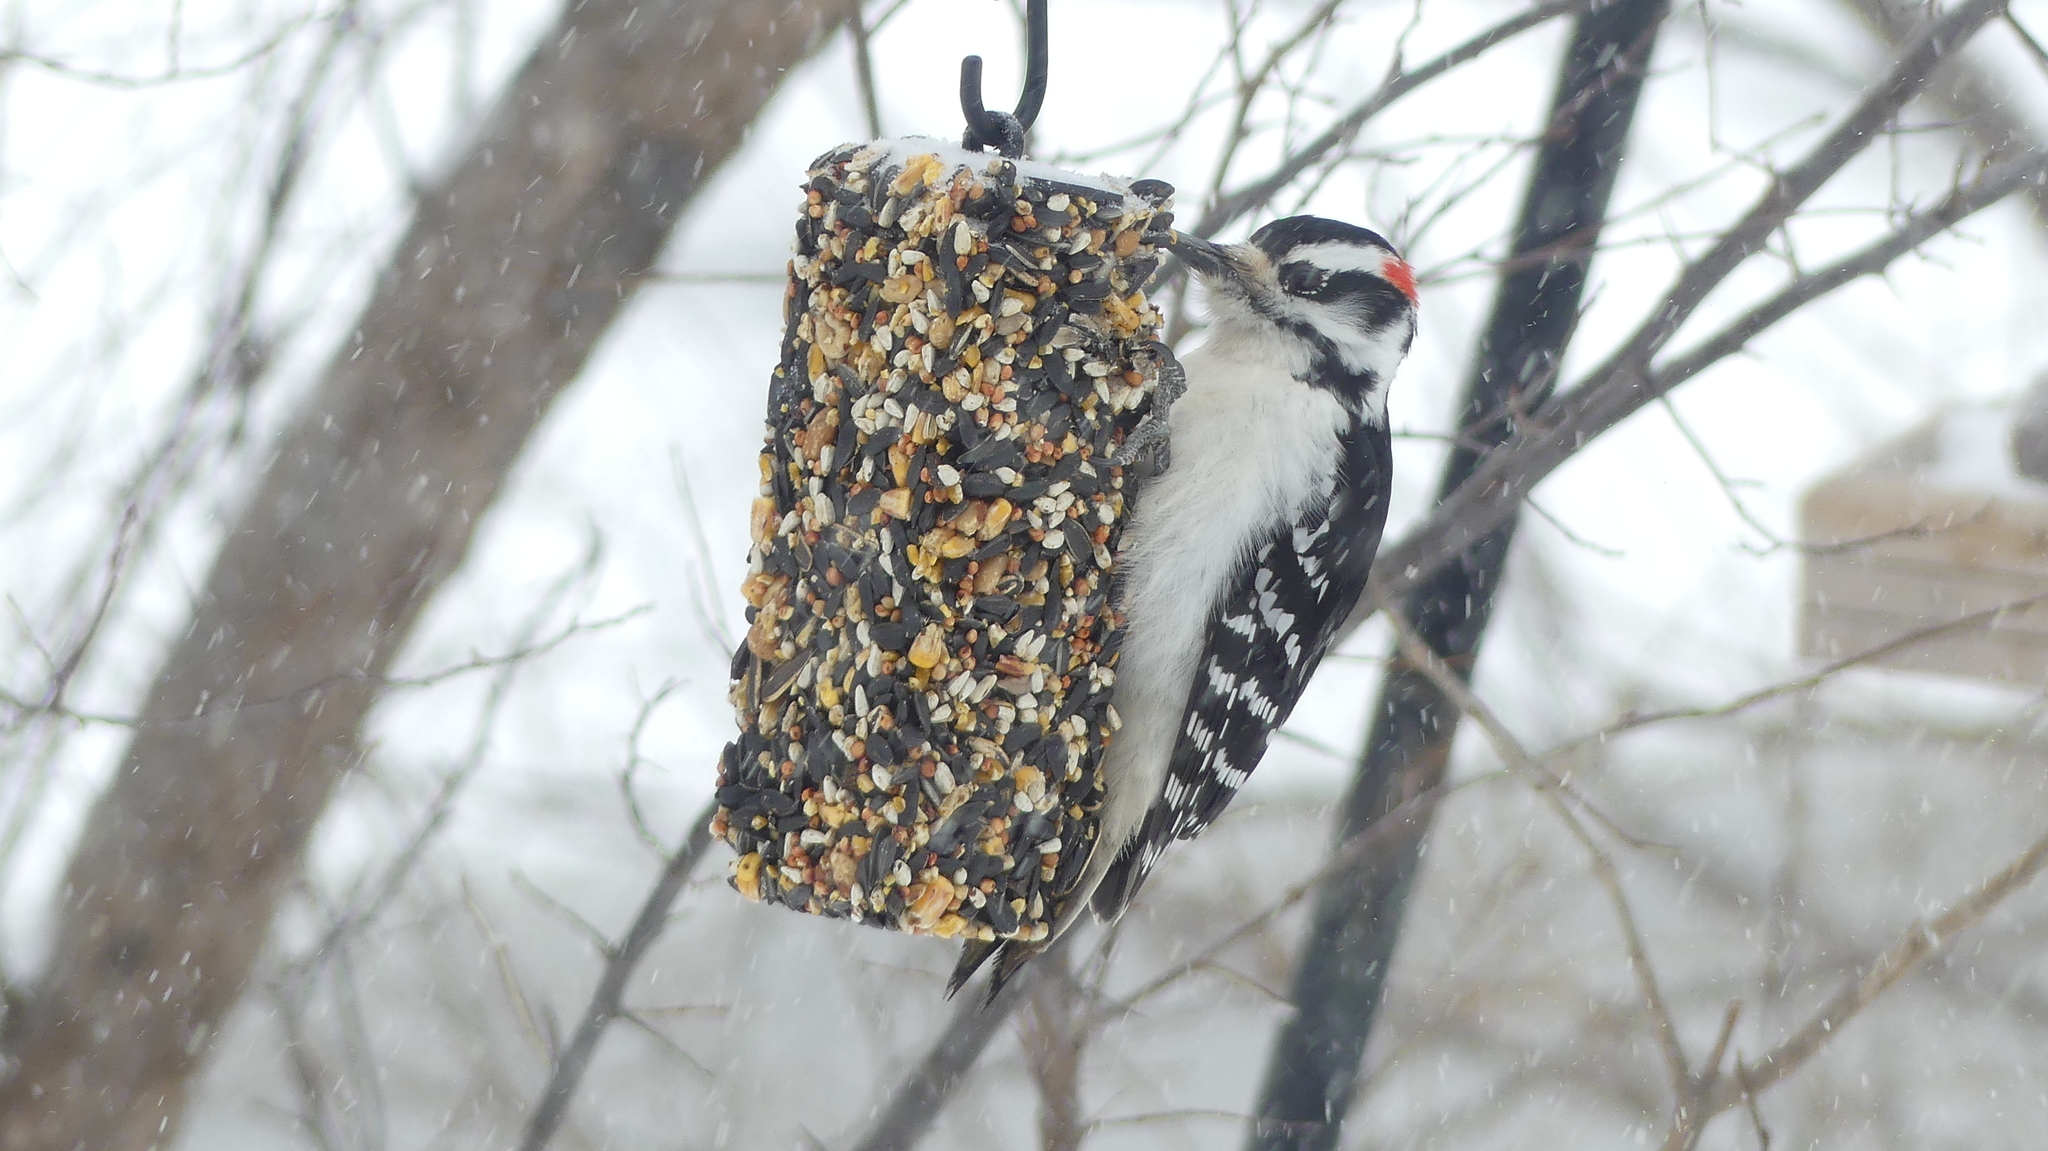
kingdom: Animalia
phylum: Chordata
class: Aves
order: Piciformes
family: Picidae
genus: Leuconotopicus
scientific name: Leuconotopicus villosus
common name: Hairy woodpecker
